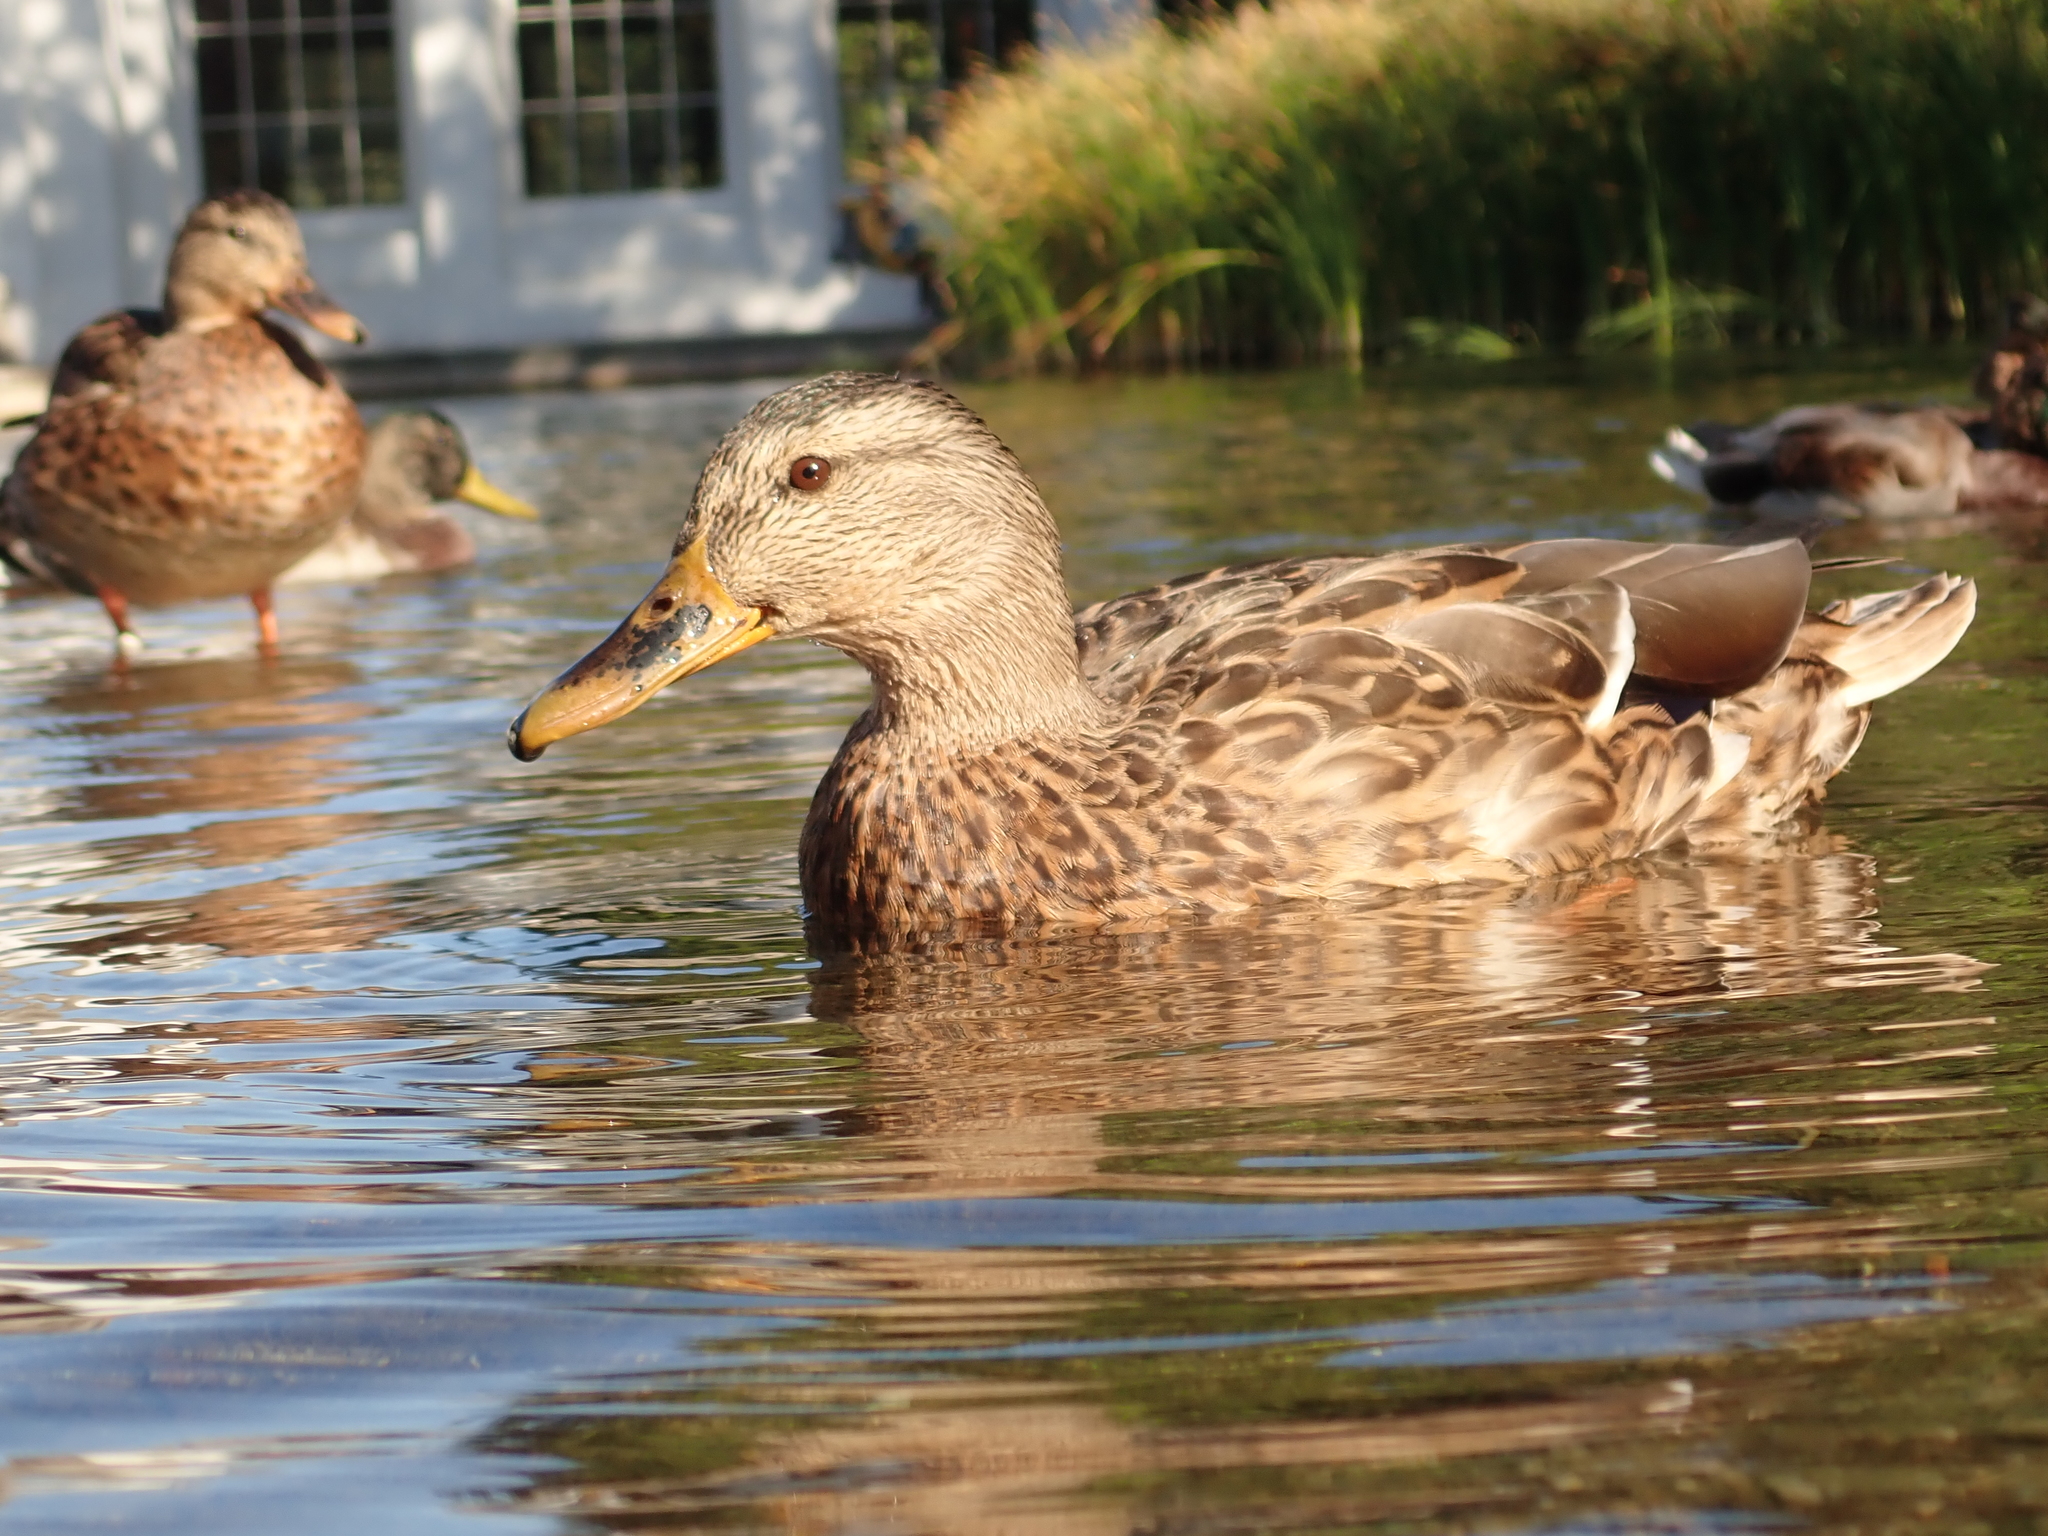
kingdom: Animalia
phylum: Chordata
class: Aves
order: Anseriformes
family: Anatidae
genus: Anas
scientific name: Anas platyrhynchos
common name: Mallard
